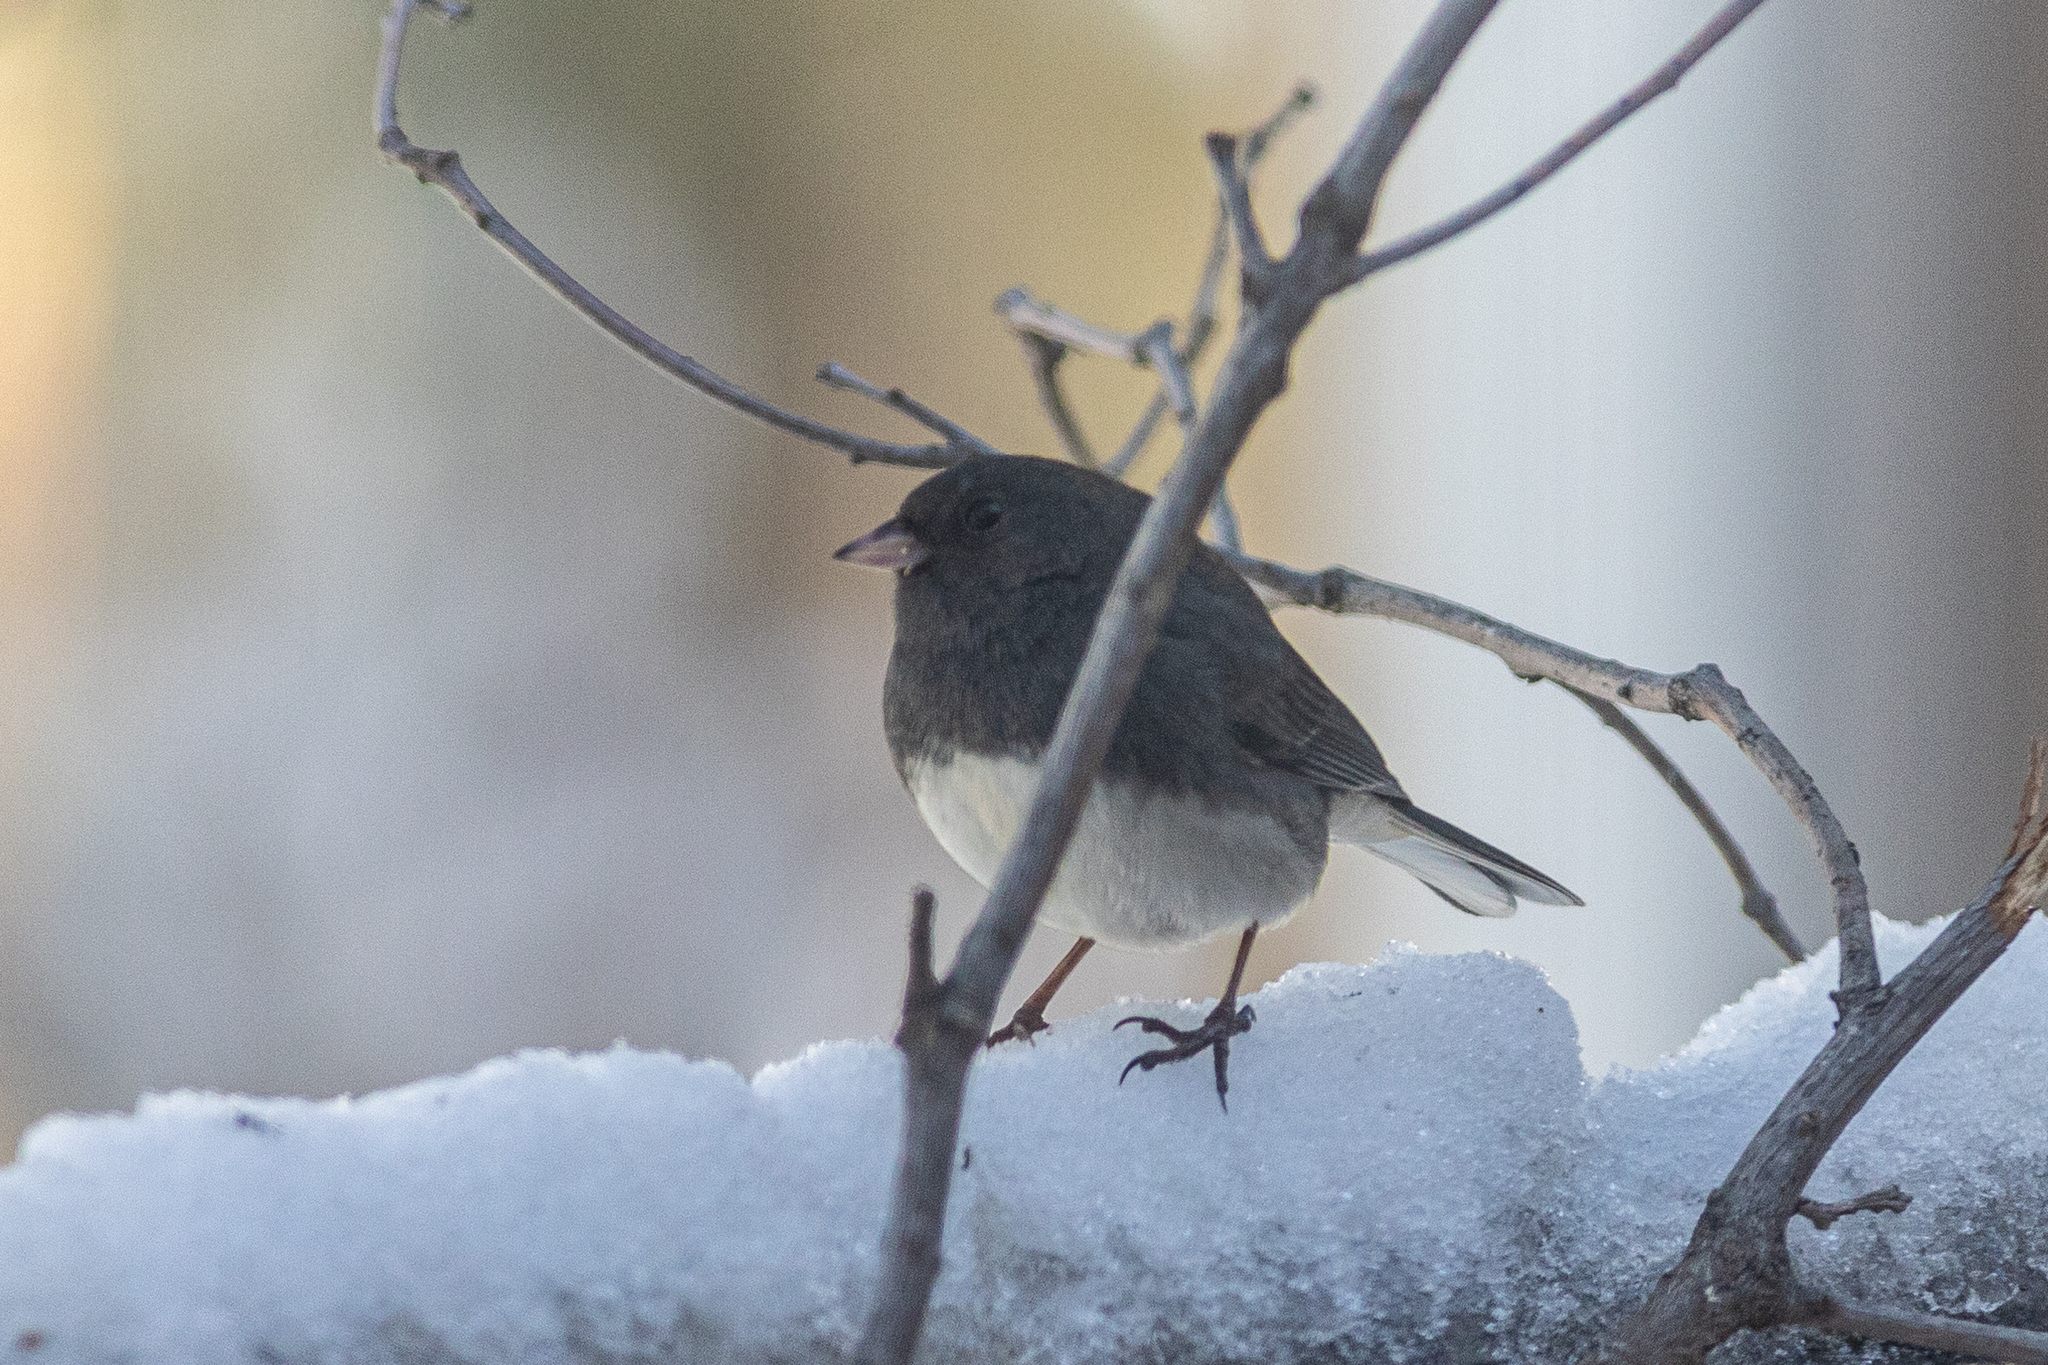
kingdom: Animalia
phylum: Chordata
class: Aves
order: Passeriformes
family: Passerellidae
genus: Junco
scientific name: Junco hyemalis
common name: Dark-eyed junco
